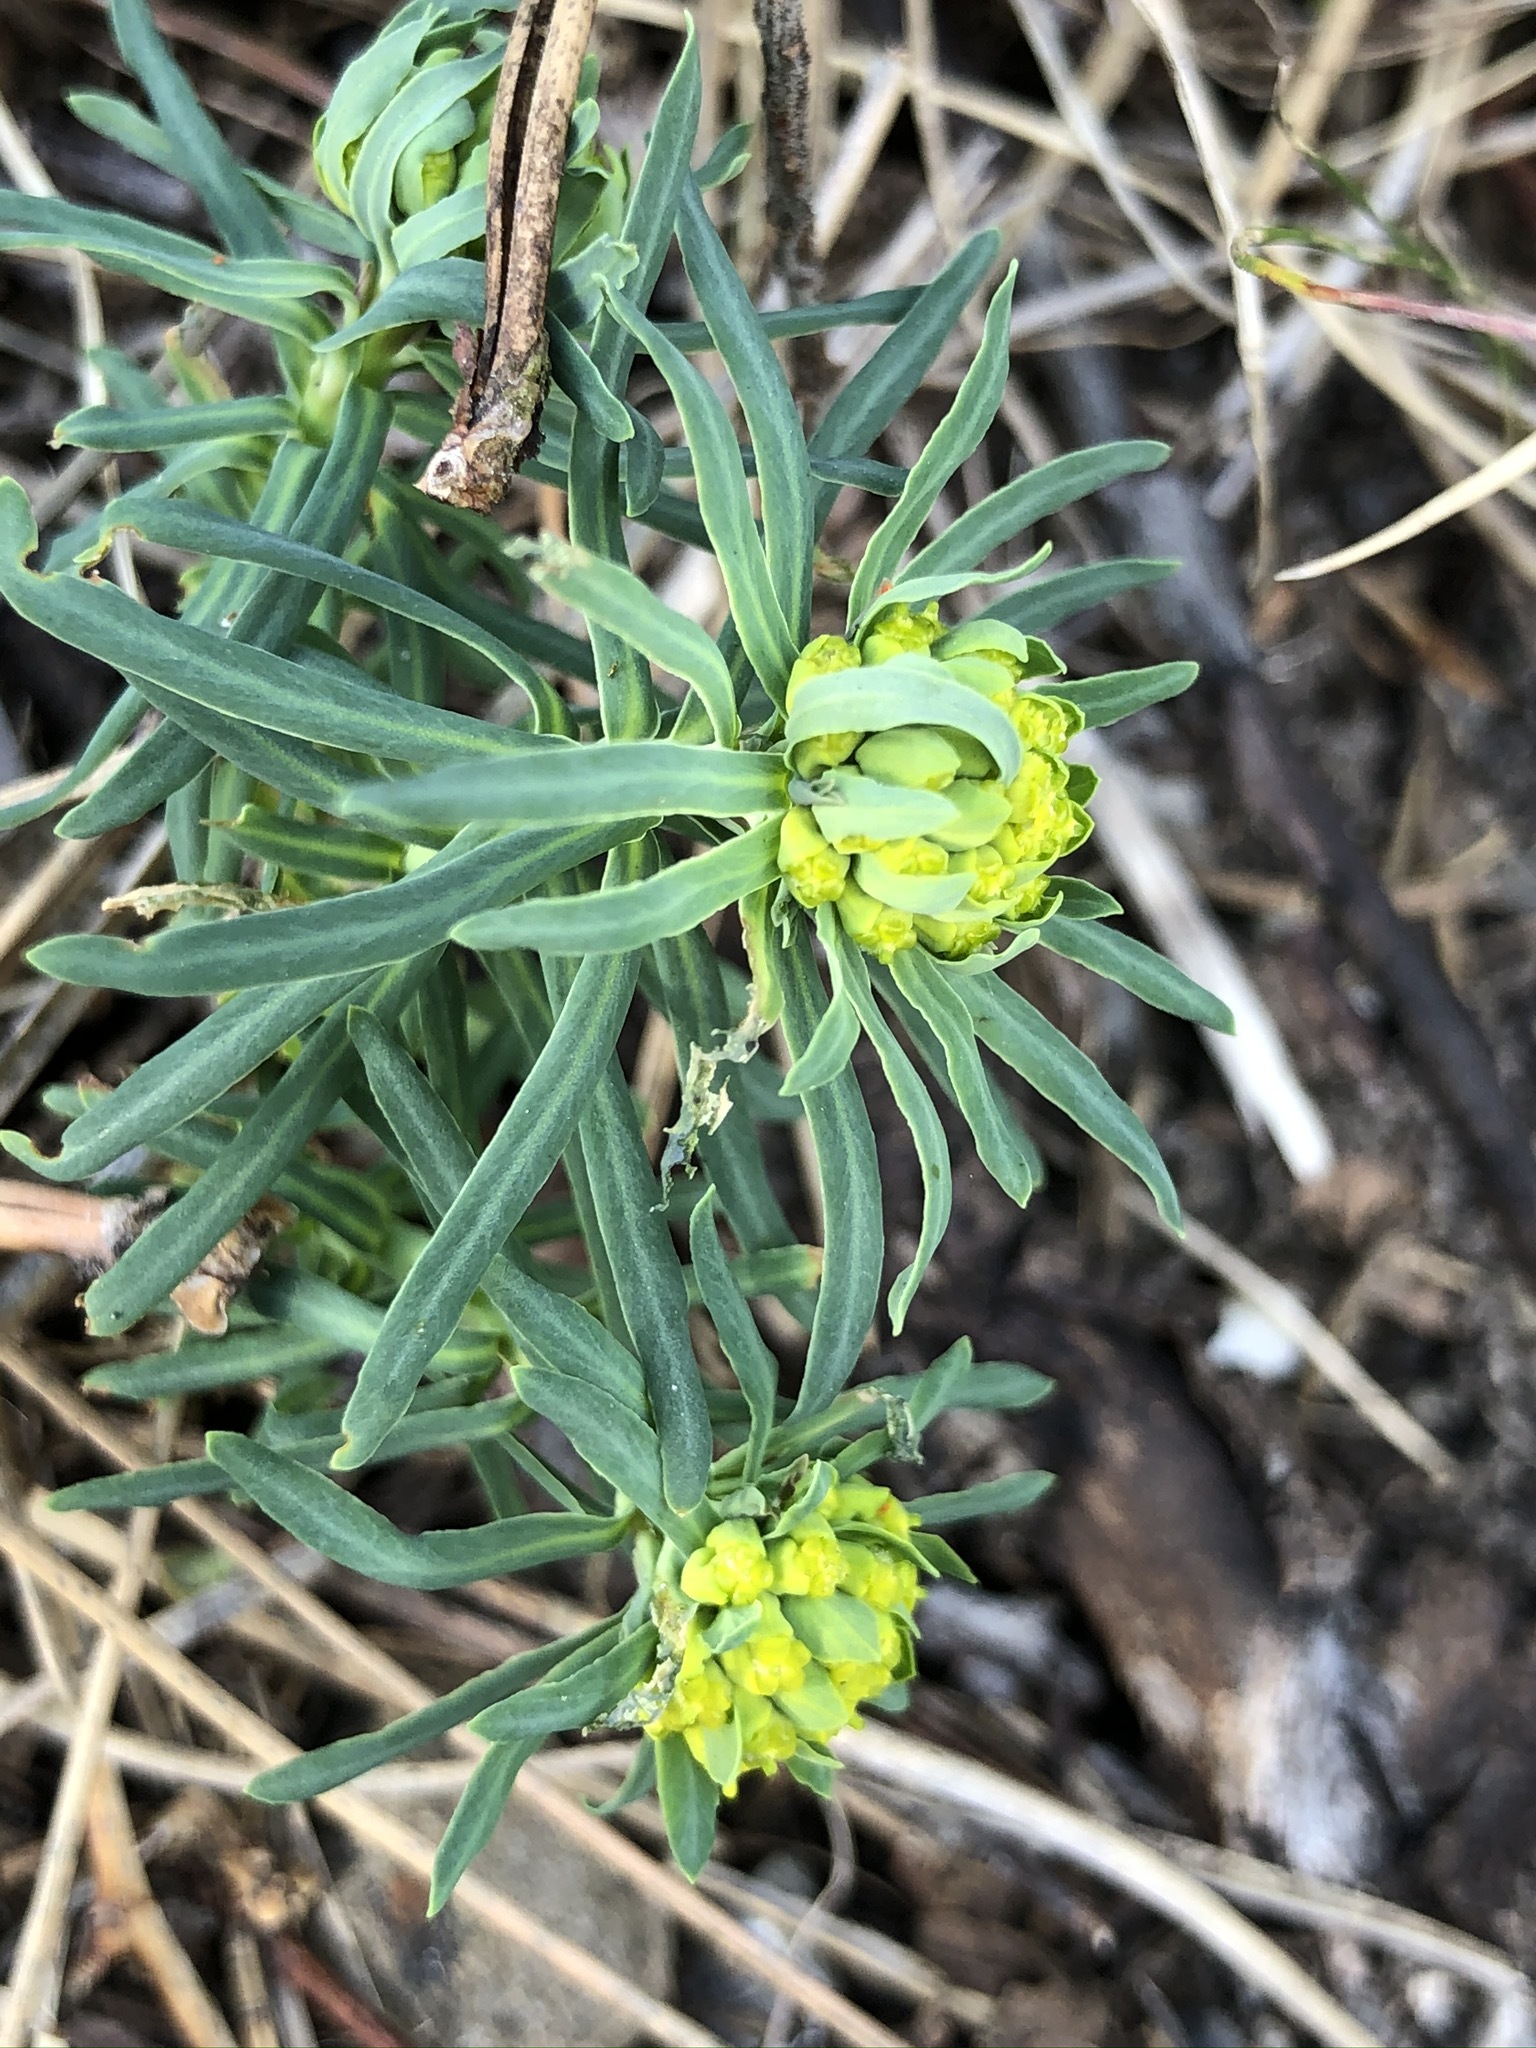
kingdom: Plantae
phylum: Tracheophyta
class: Magnoliopsida
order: Malpighiales
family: Euphorbiaceae
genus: Euphorbia
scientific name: Euphorbia cyparissias
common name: Cypress spurge
